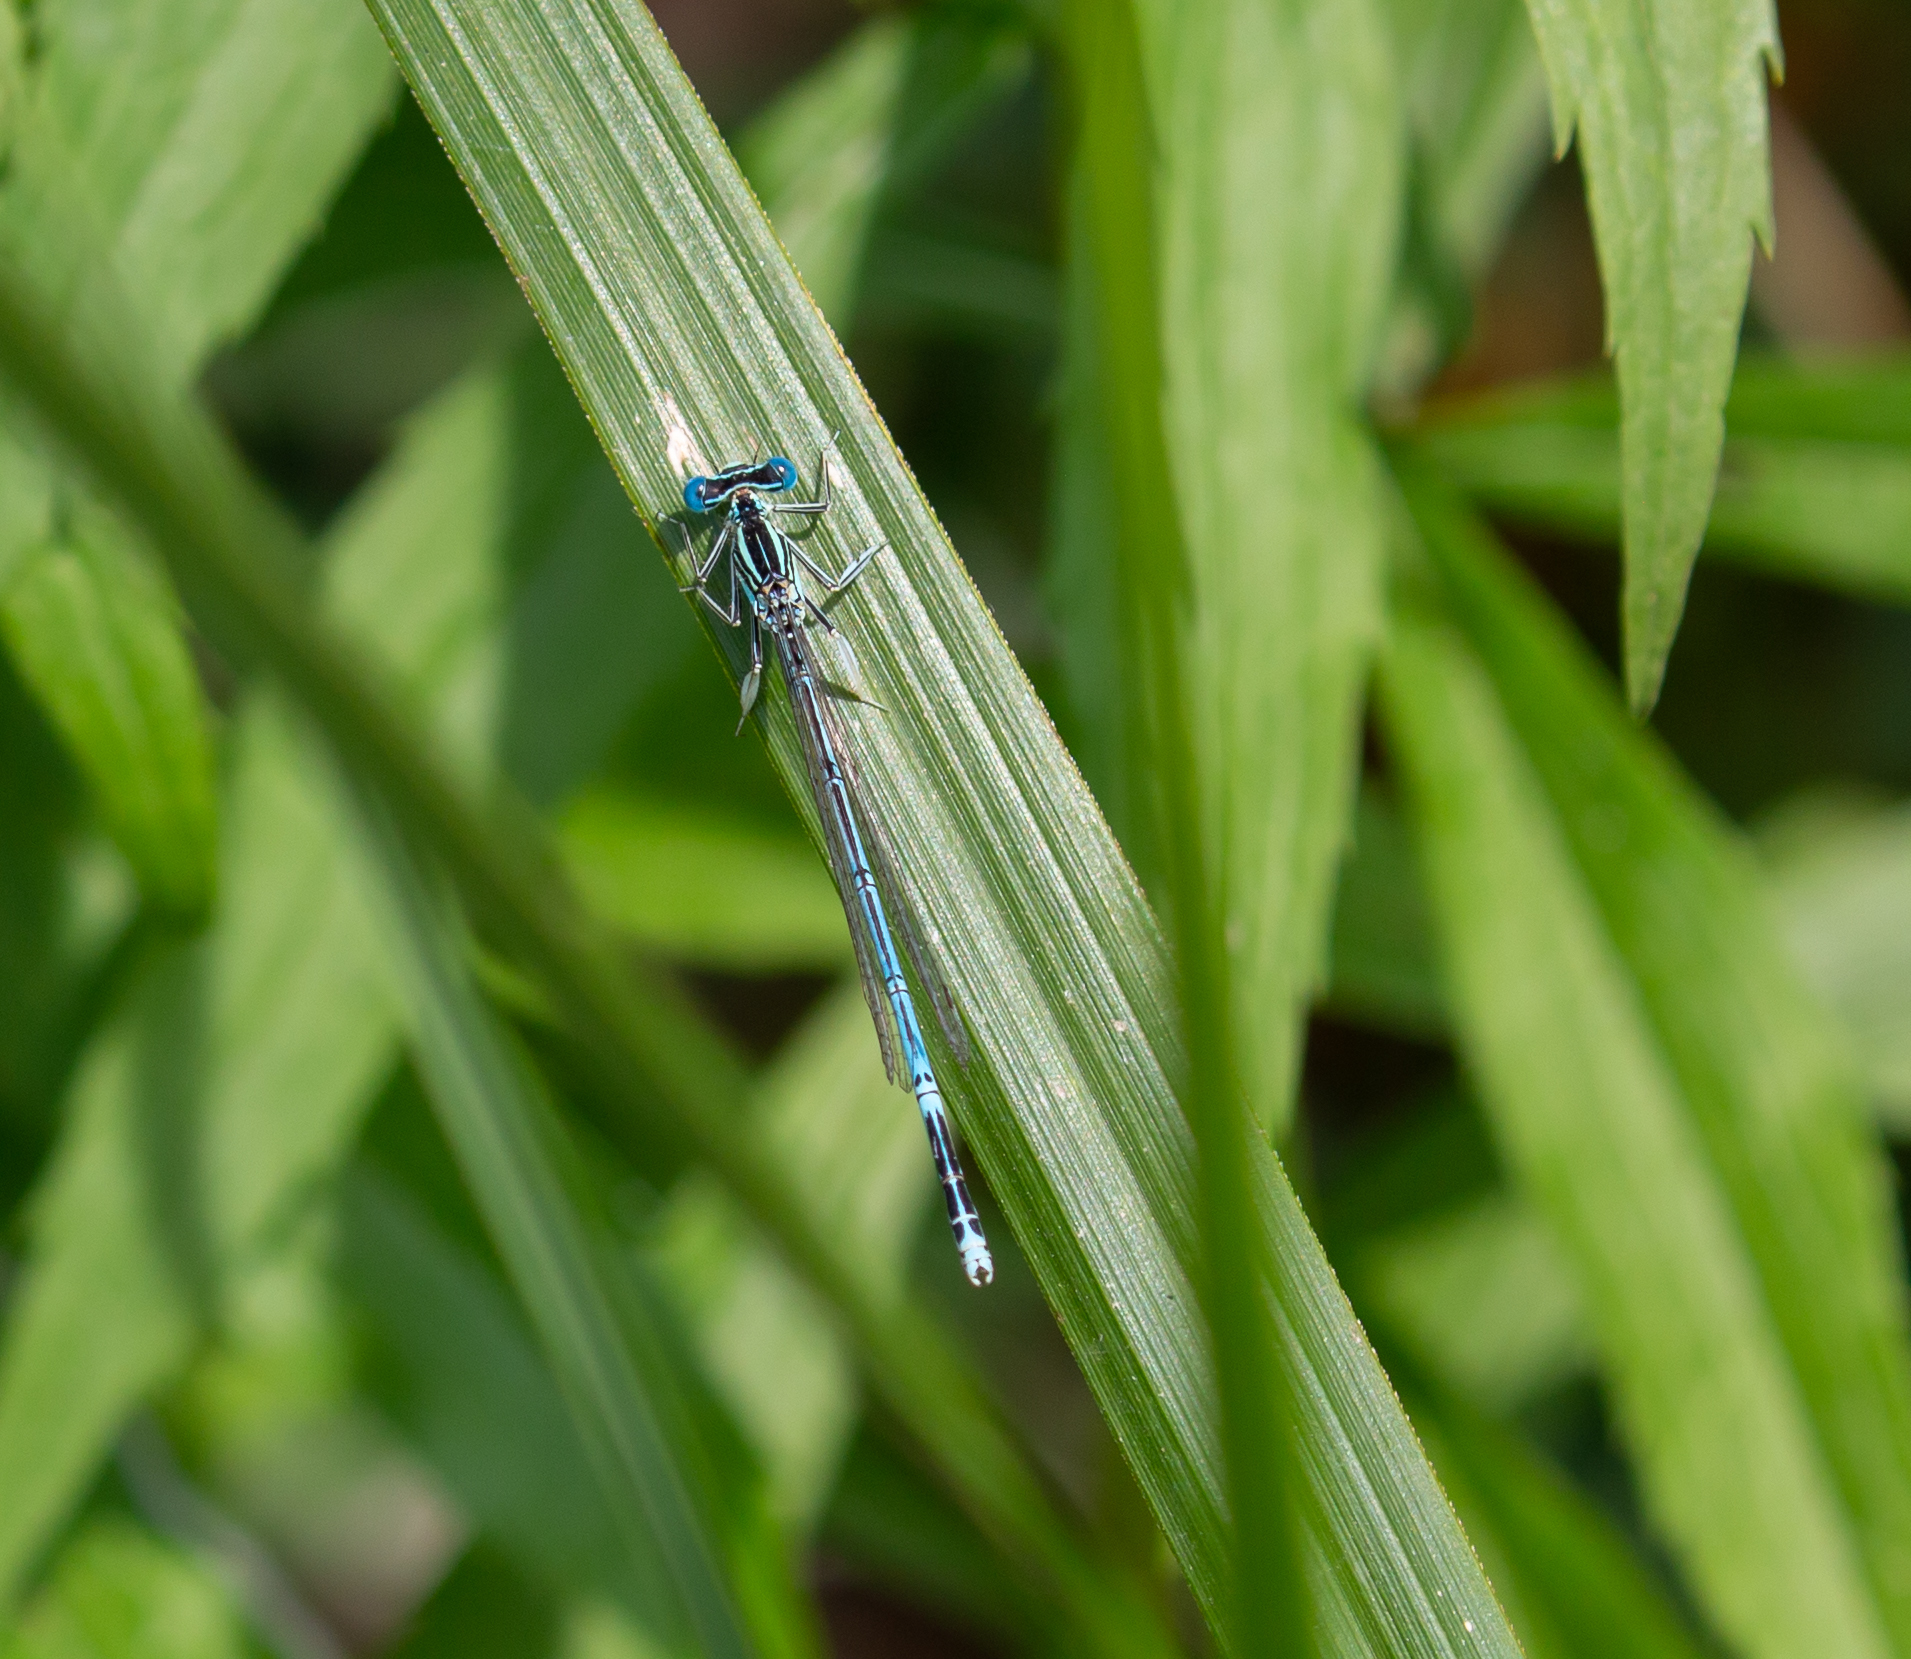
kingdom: Animalia
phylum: Arthropoda
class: Insecta
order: Odonata
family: Platycnemididae
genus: Platycnemis
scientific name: Platycnemis pennipes
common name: White-legged damselfly
